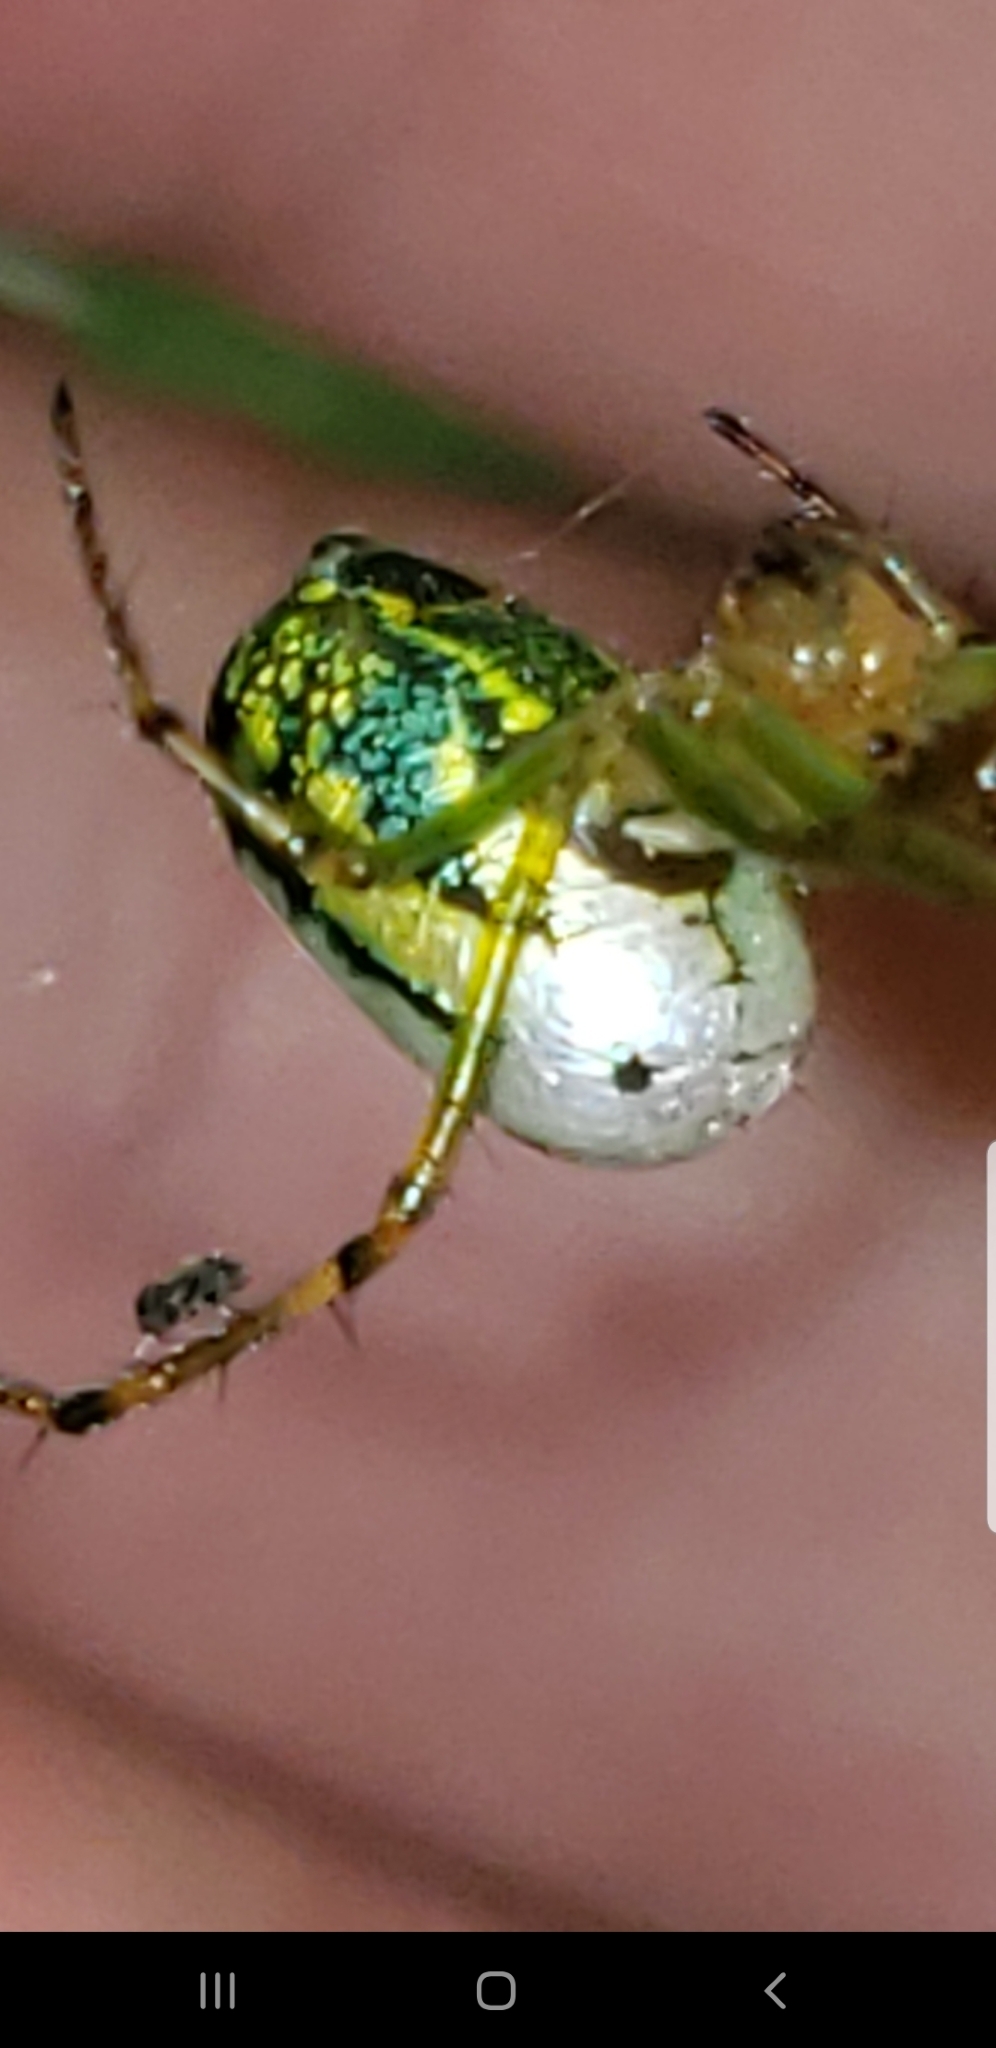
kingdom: Animalia
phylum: Arthropoda
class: Arachnida
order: Araneae
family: Tetragnathidae
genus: Leucauge
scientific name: Leucauge venusta
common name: Longjawed orb weavers
